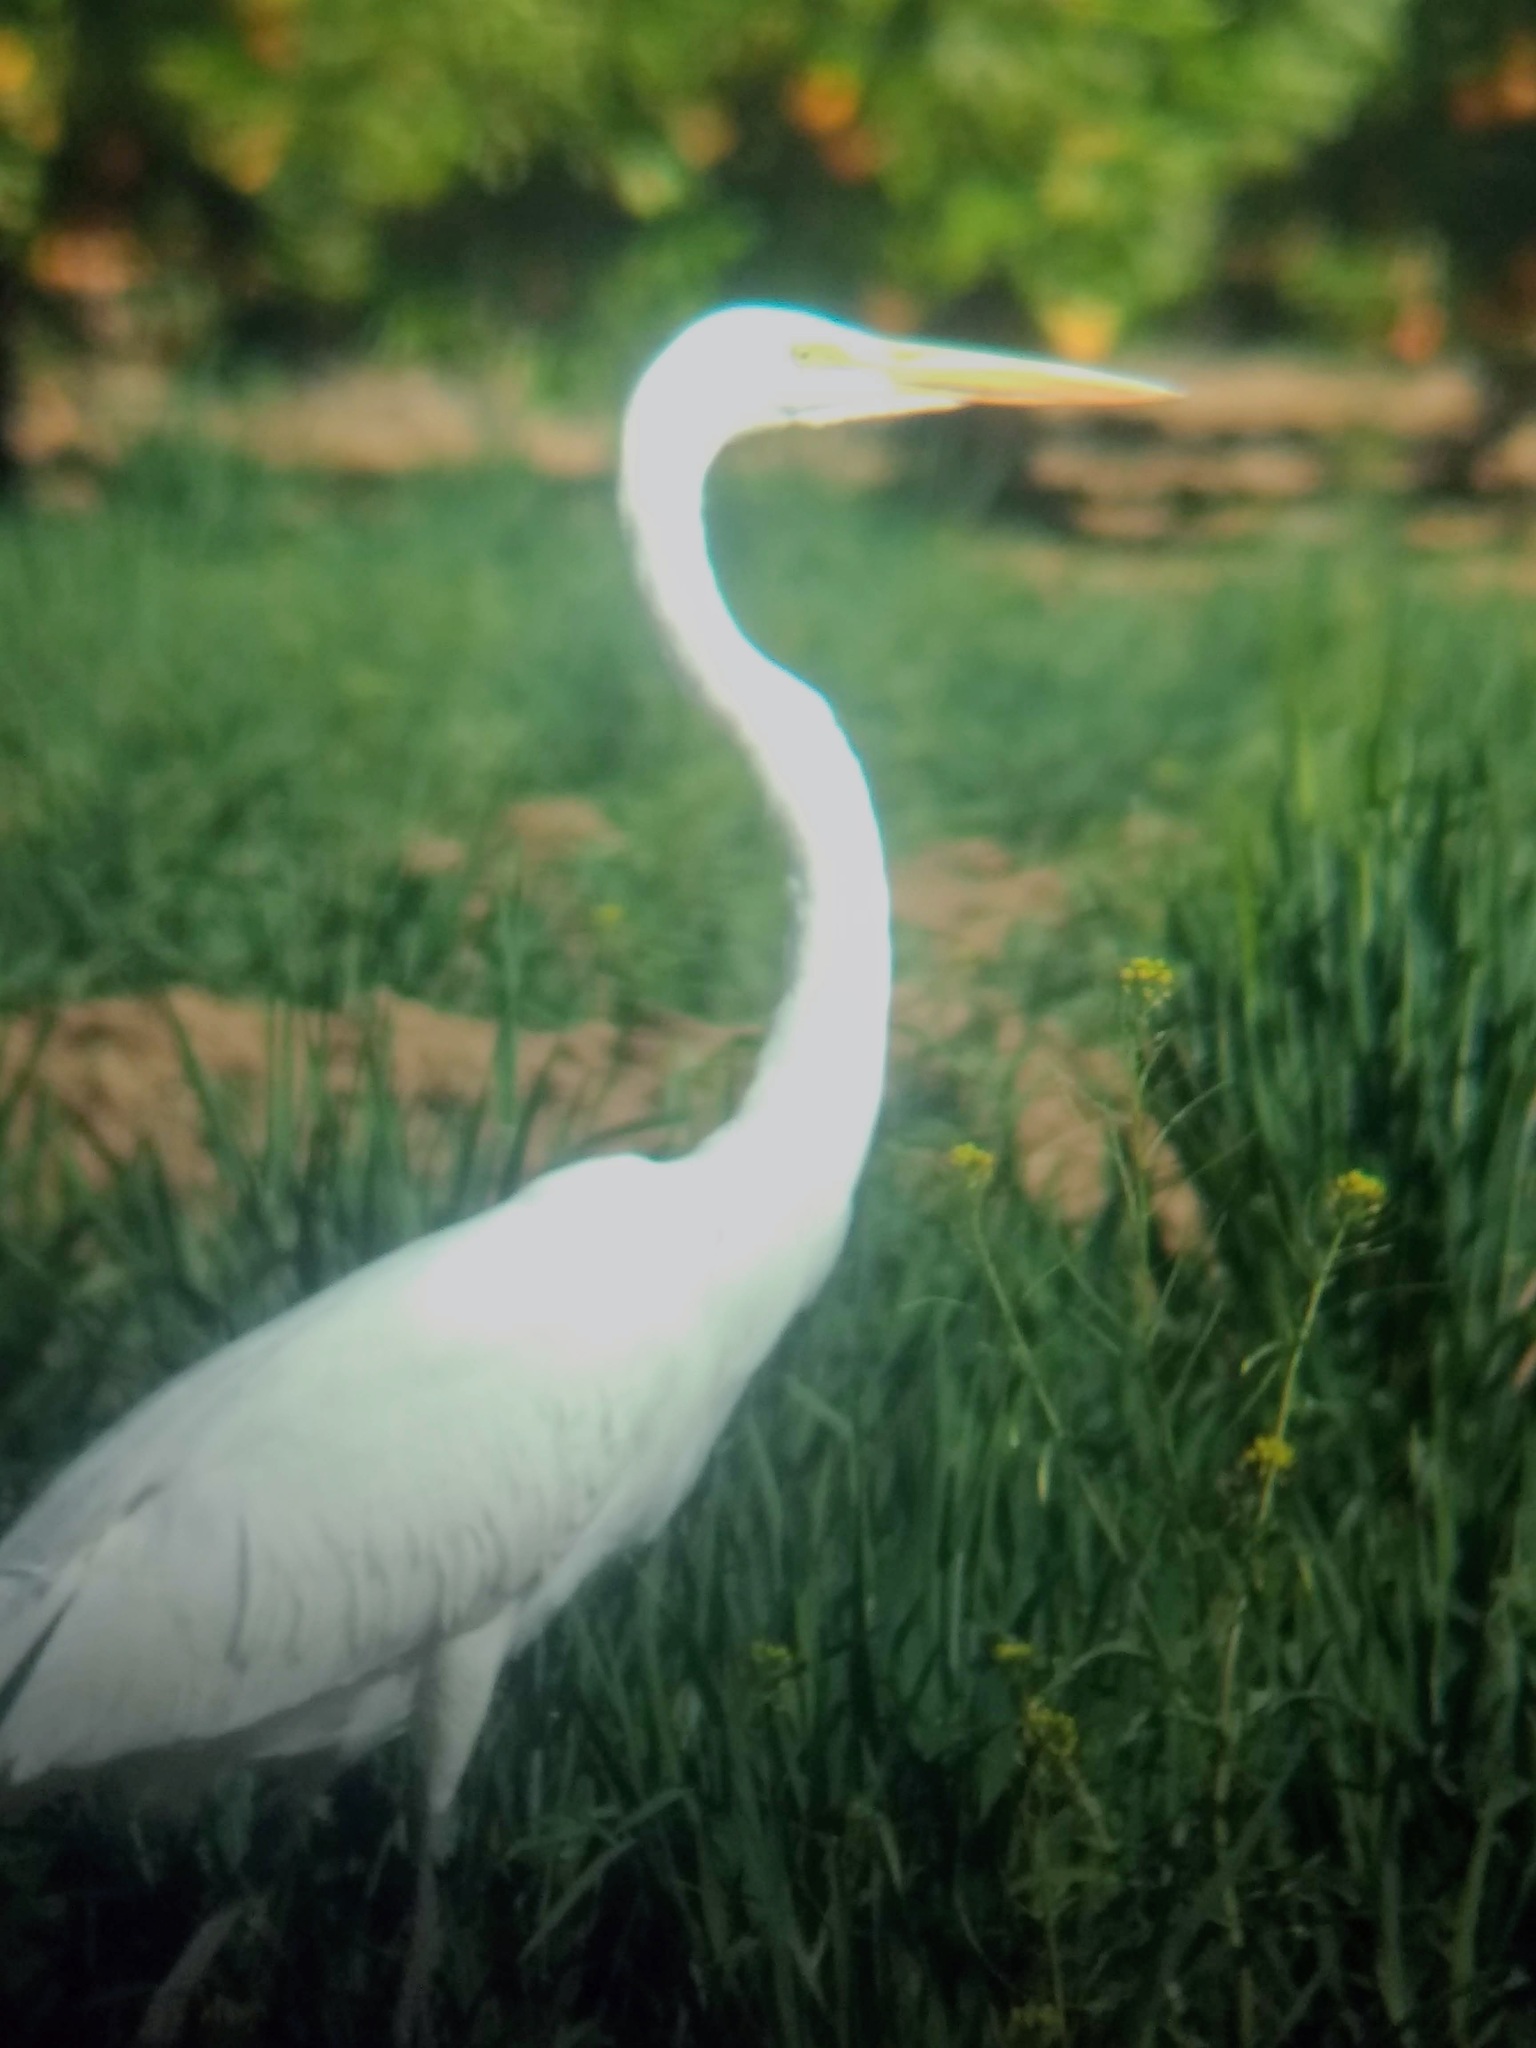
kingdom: Animalia
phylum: Chordata
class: Aves
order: Pelecaniformes
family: Ardeidae
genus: Ardea
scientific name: Ardea alba
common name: Great egret
